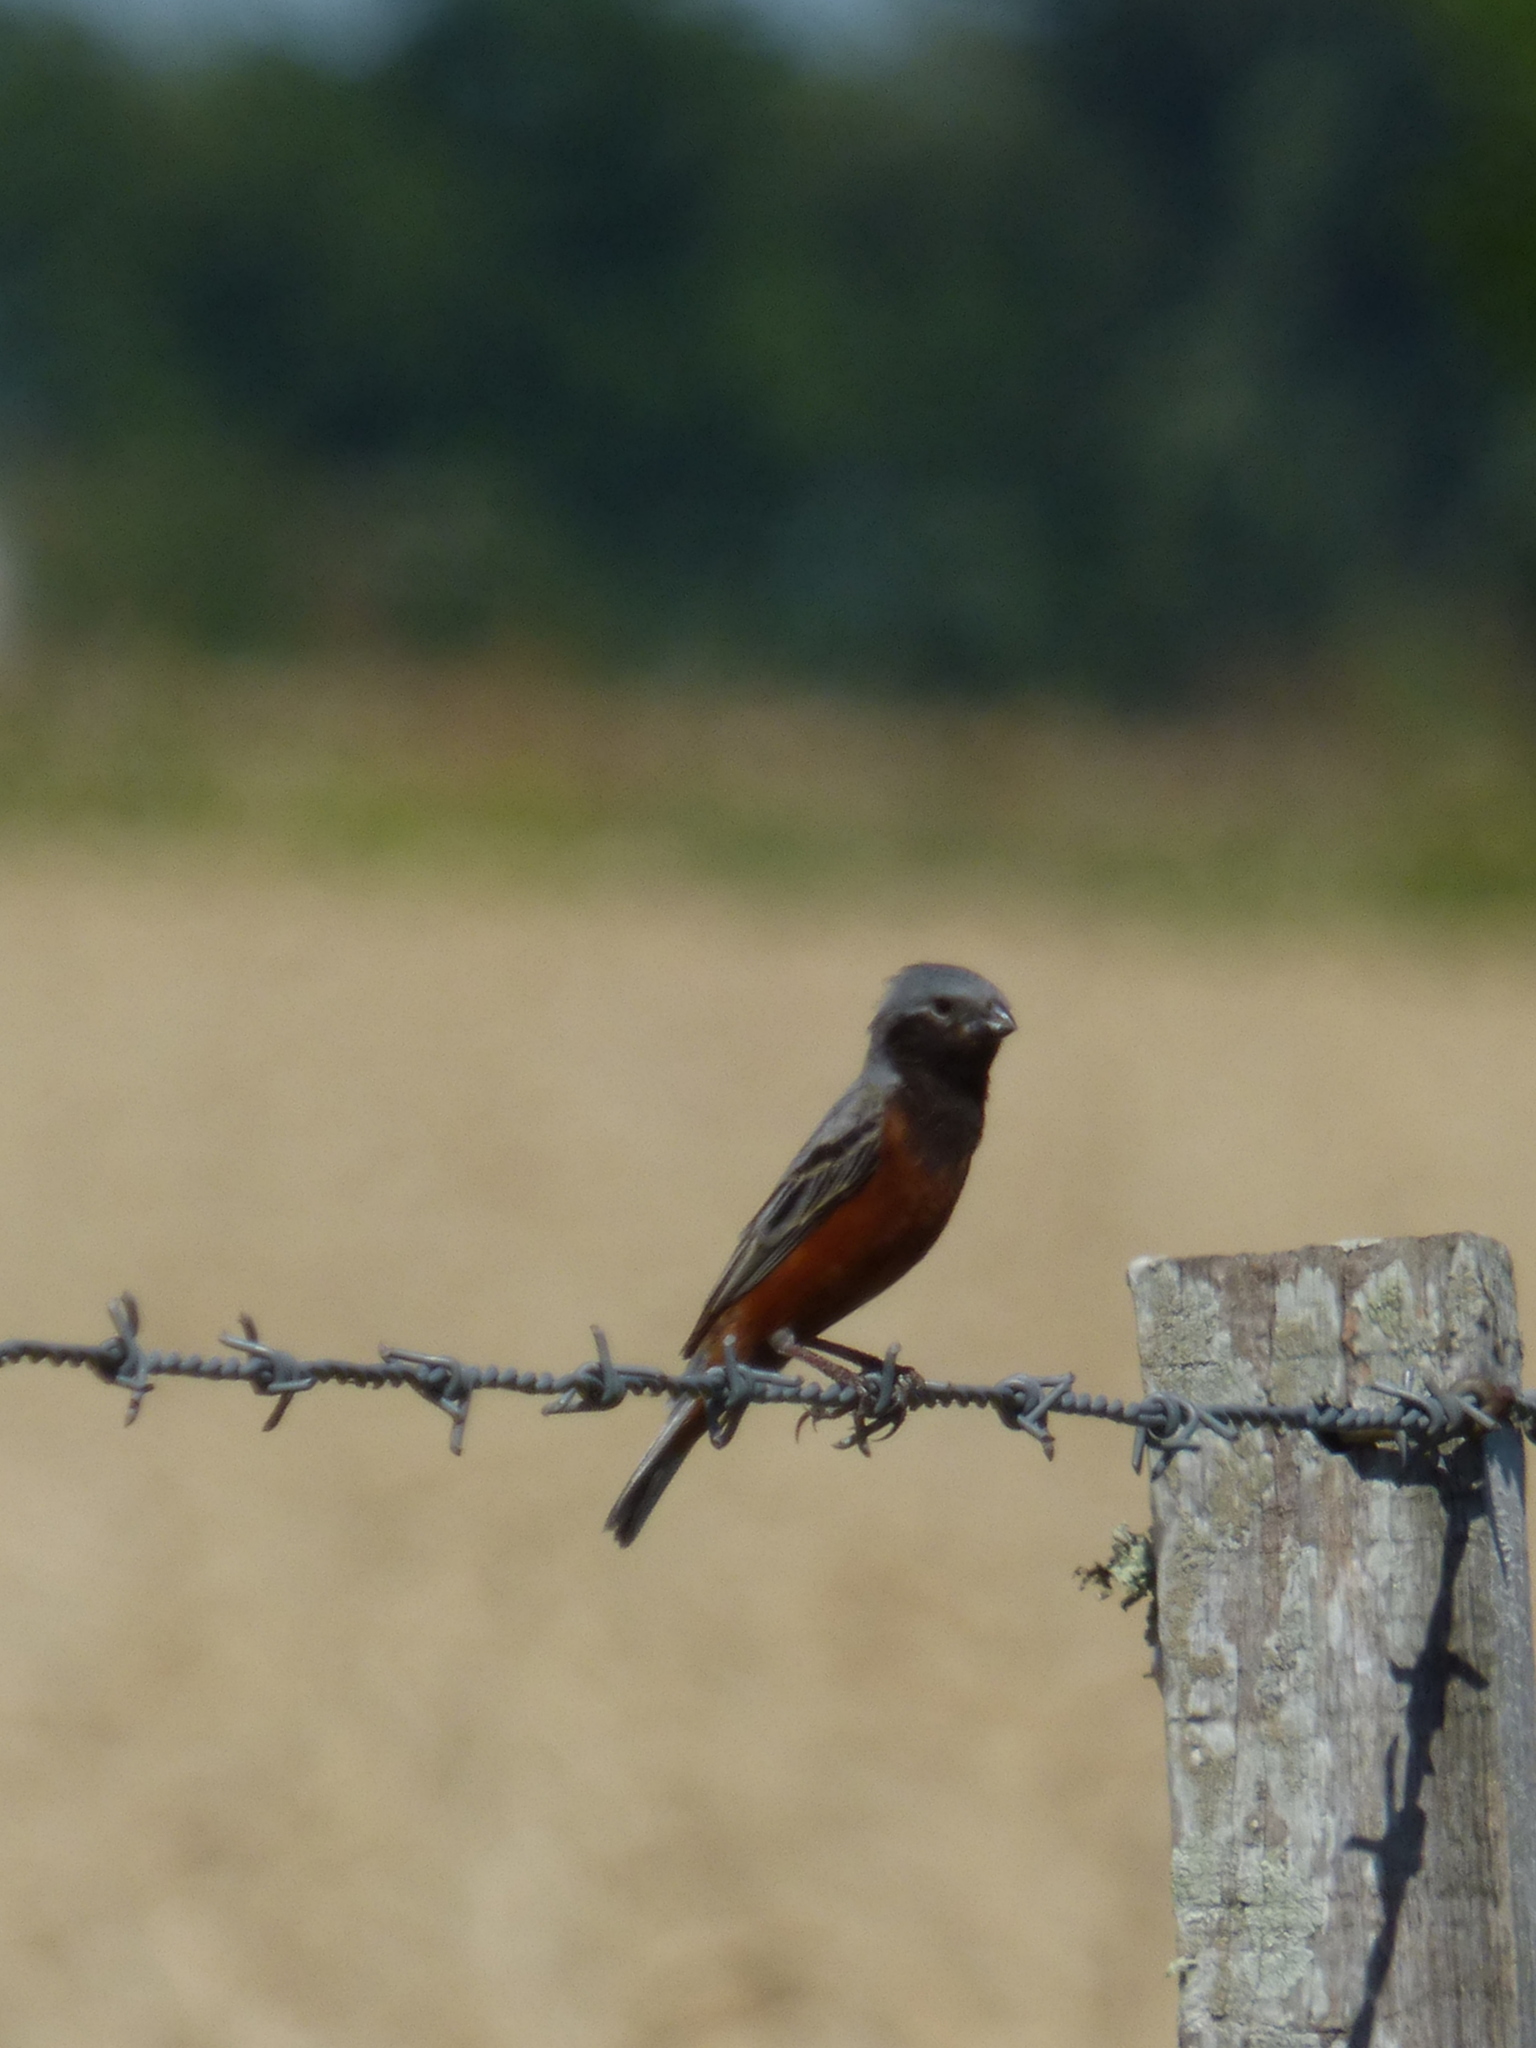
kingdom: Animalia
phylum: Chordata
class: Aves
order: Passeriformes
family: Thraupidae
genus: Sporophila
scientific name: Sporophila ruficollis
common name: Dark-throated seedeater
